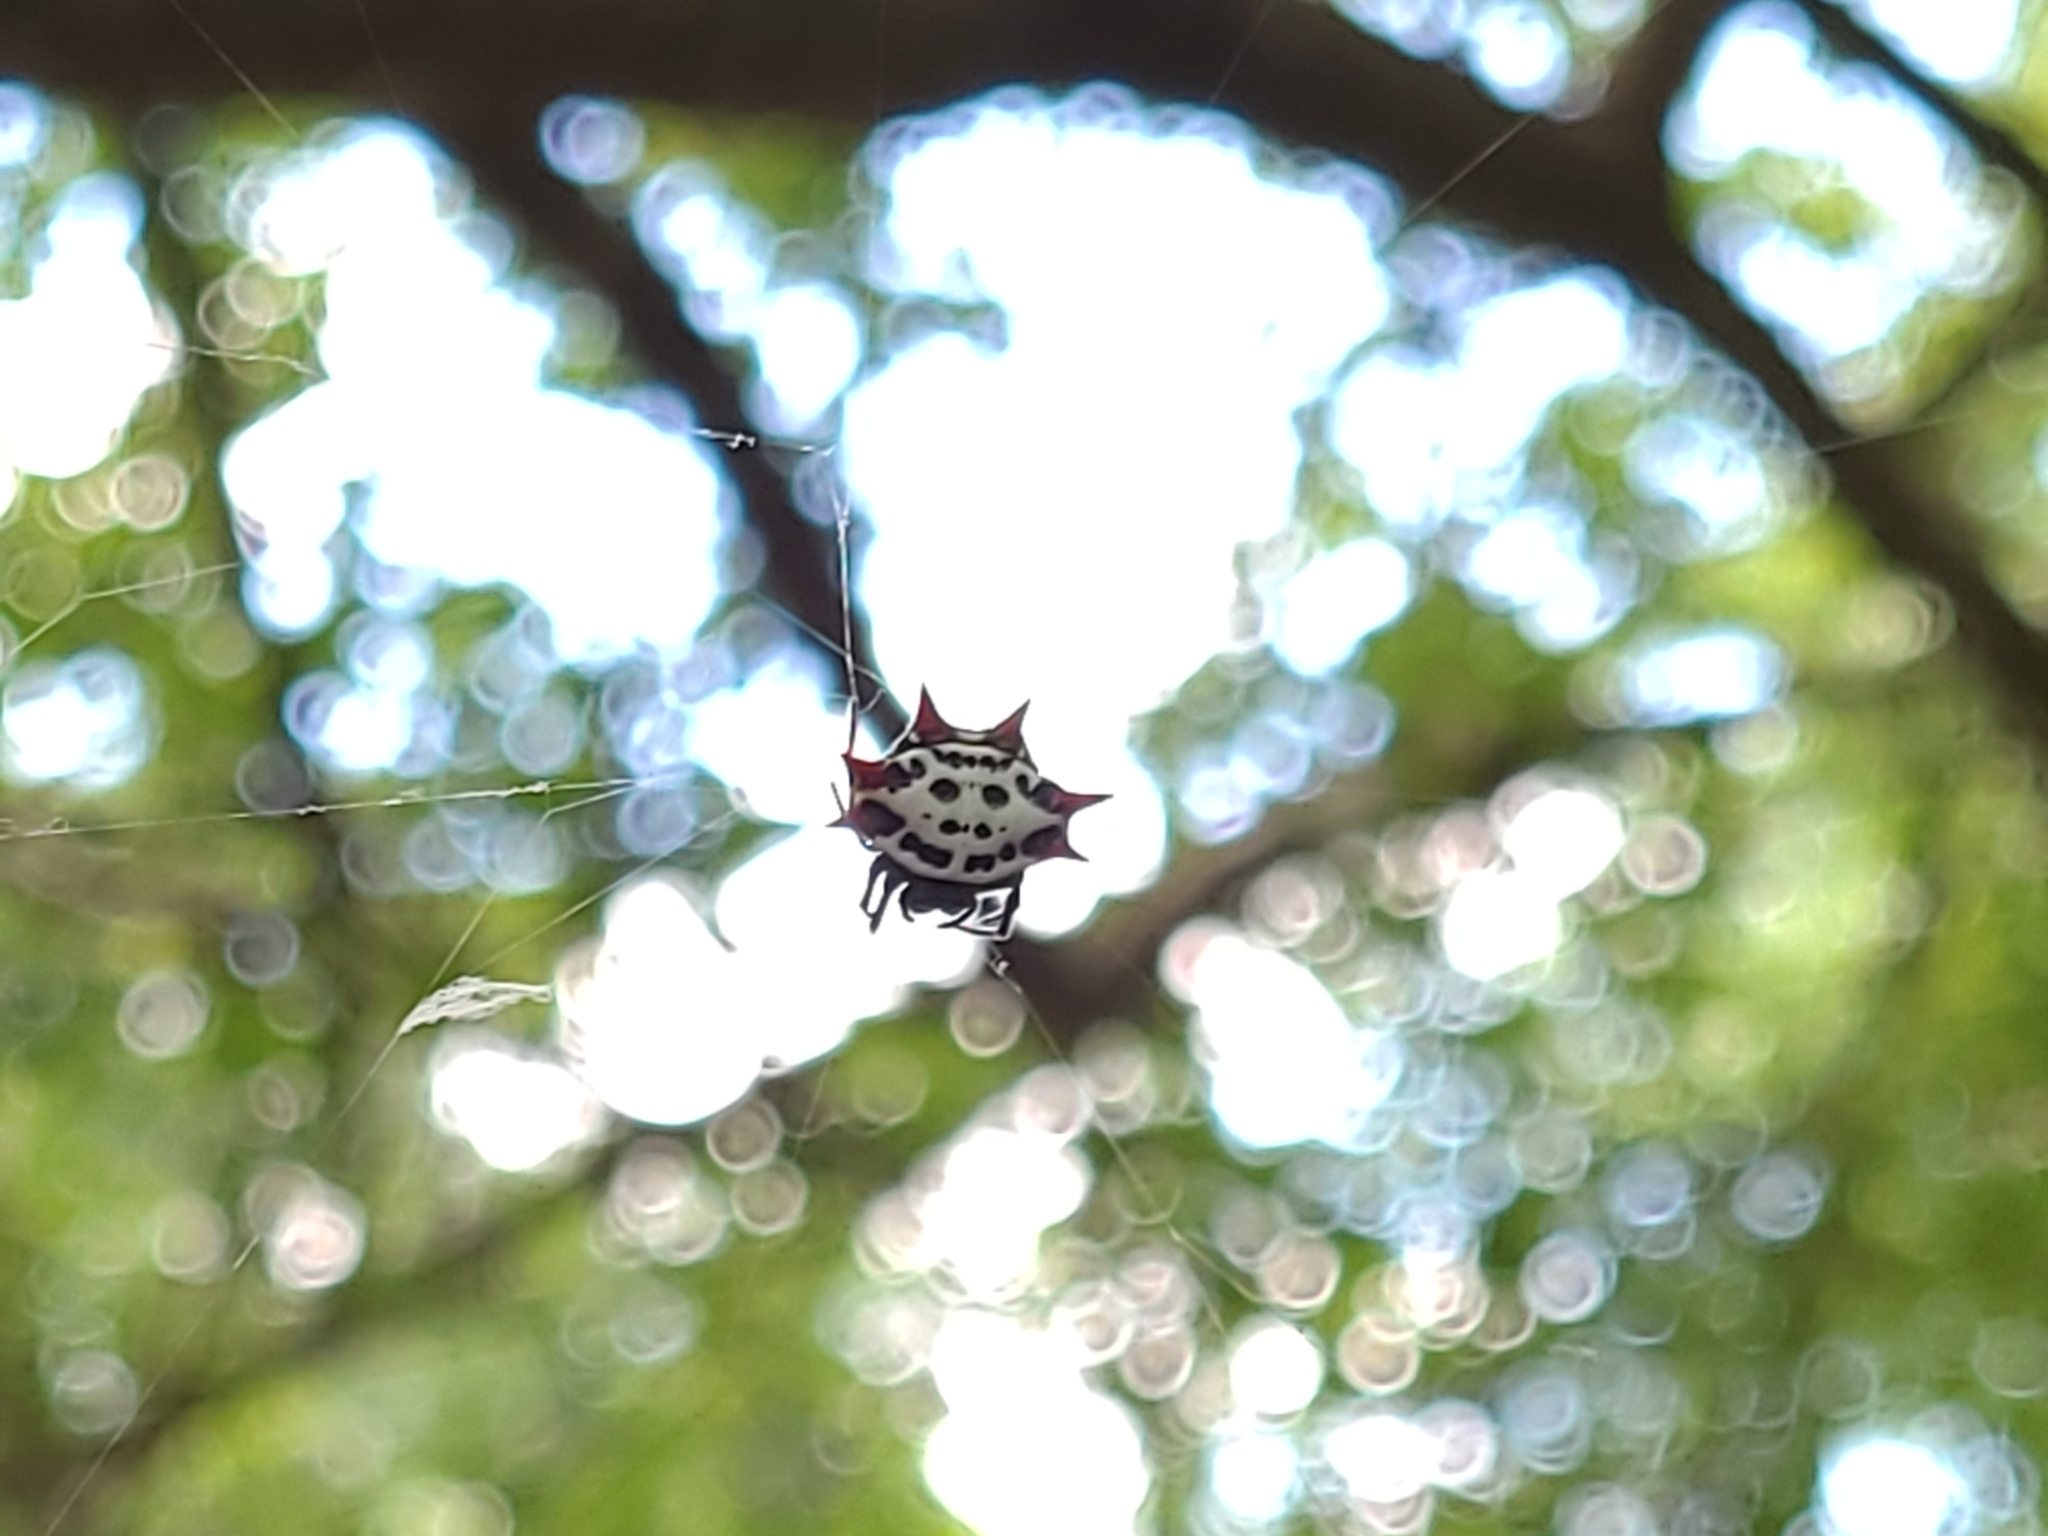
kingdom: Animalia
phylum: Arthropoda
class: Arachnida
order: Araneae
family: Araneidae
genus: Gasteracantha
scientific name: Gasteracantha cancriformis
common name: Orb weavers
